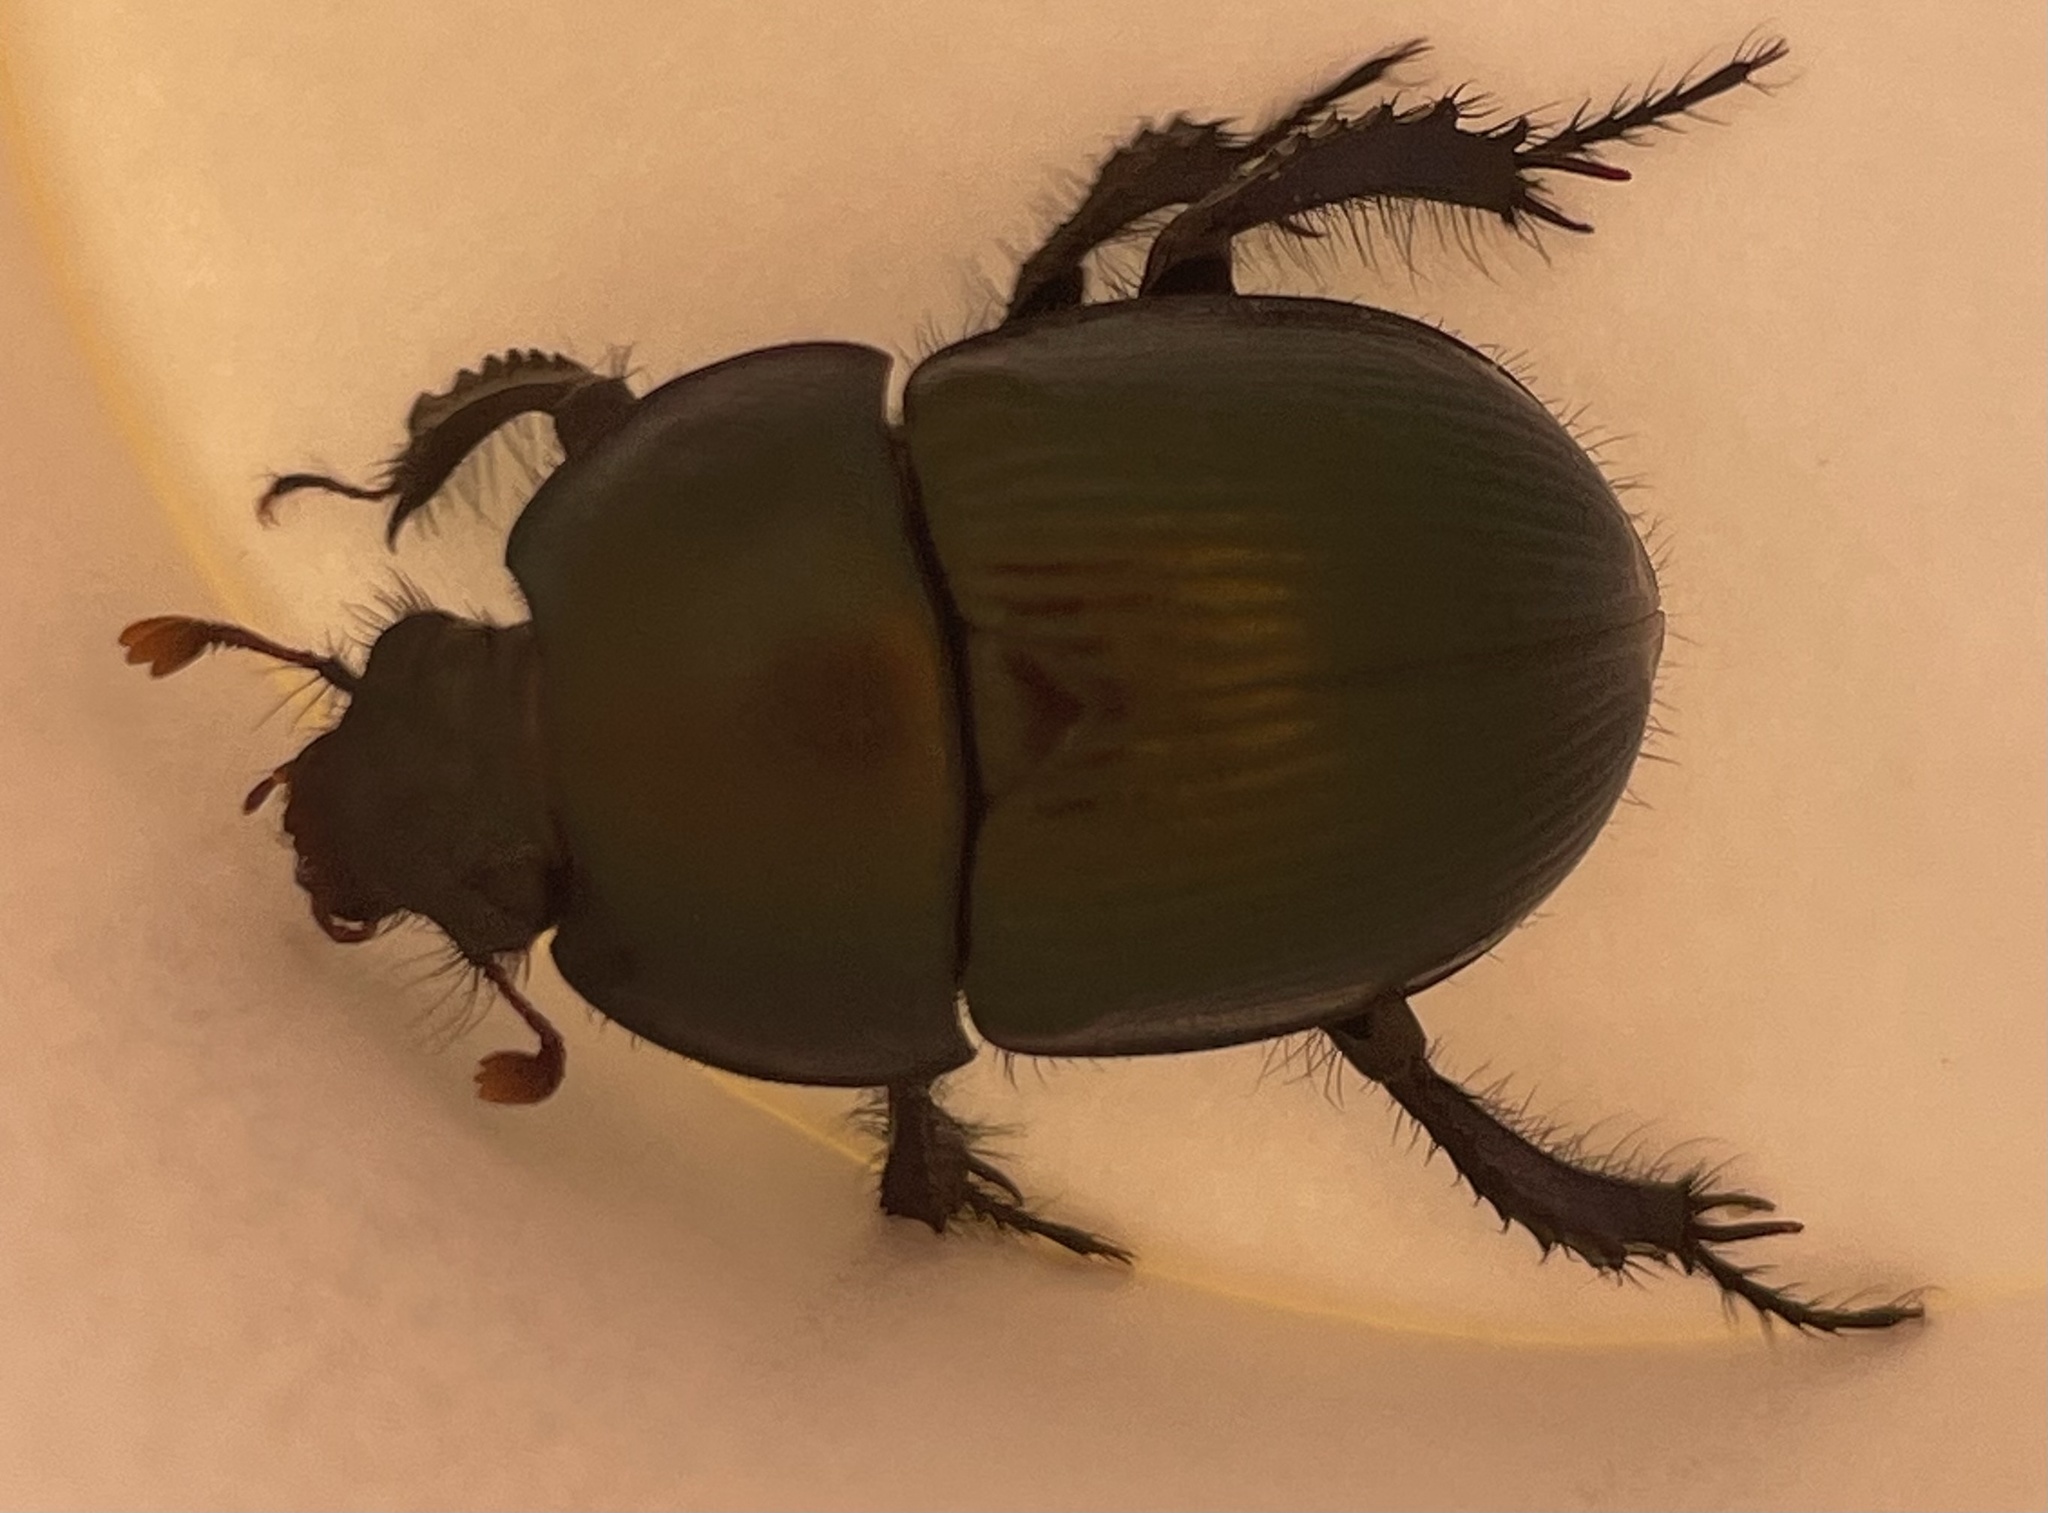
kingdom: Animalia
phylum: Arthropoda
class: Insecta
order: Coleoptera
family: Geotrupidae
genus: Geotrupes
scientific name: Geotrupes splendidus
